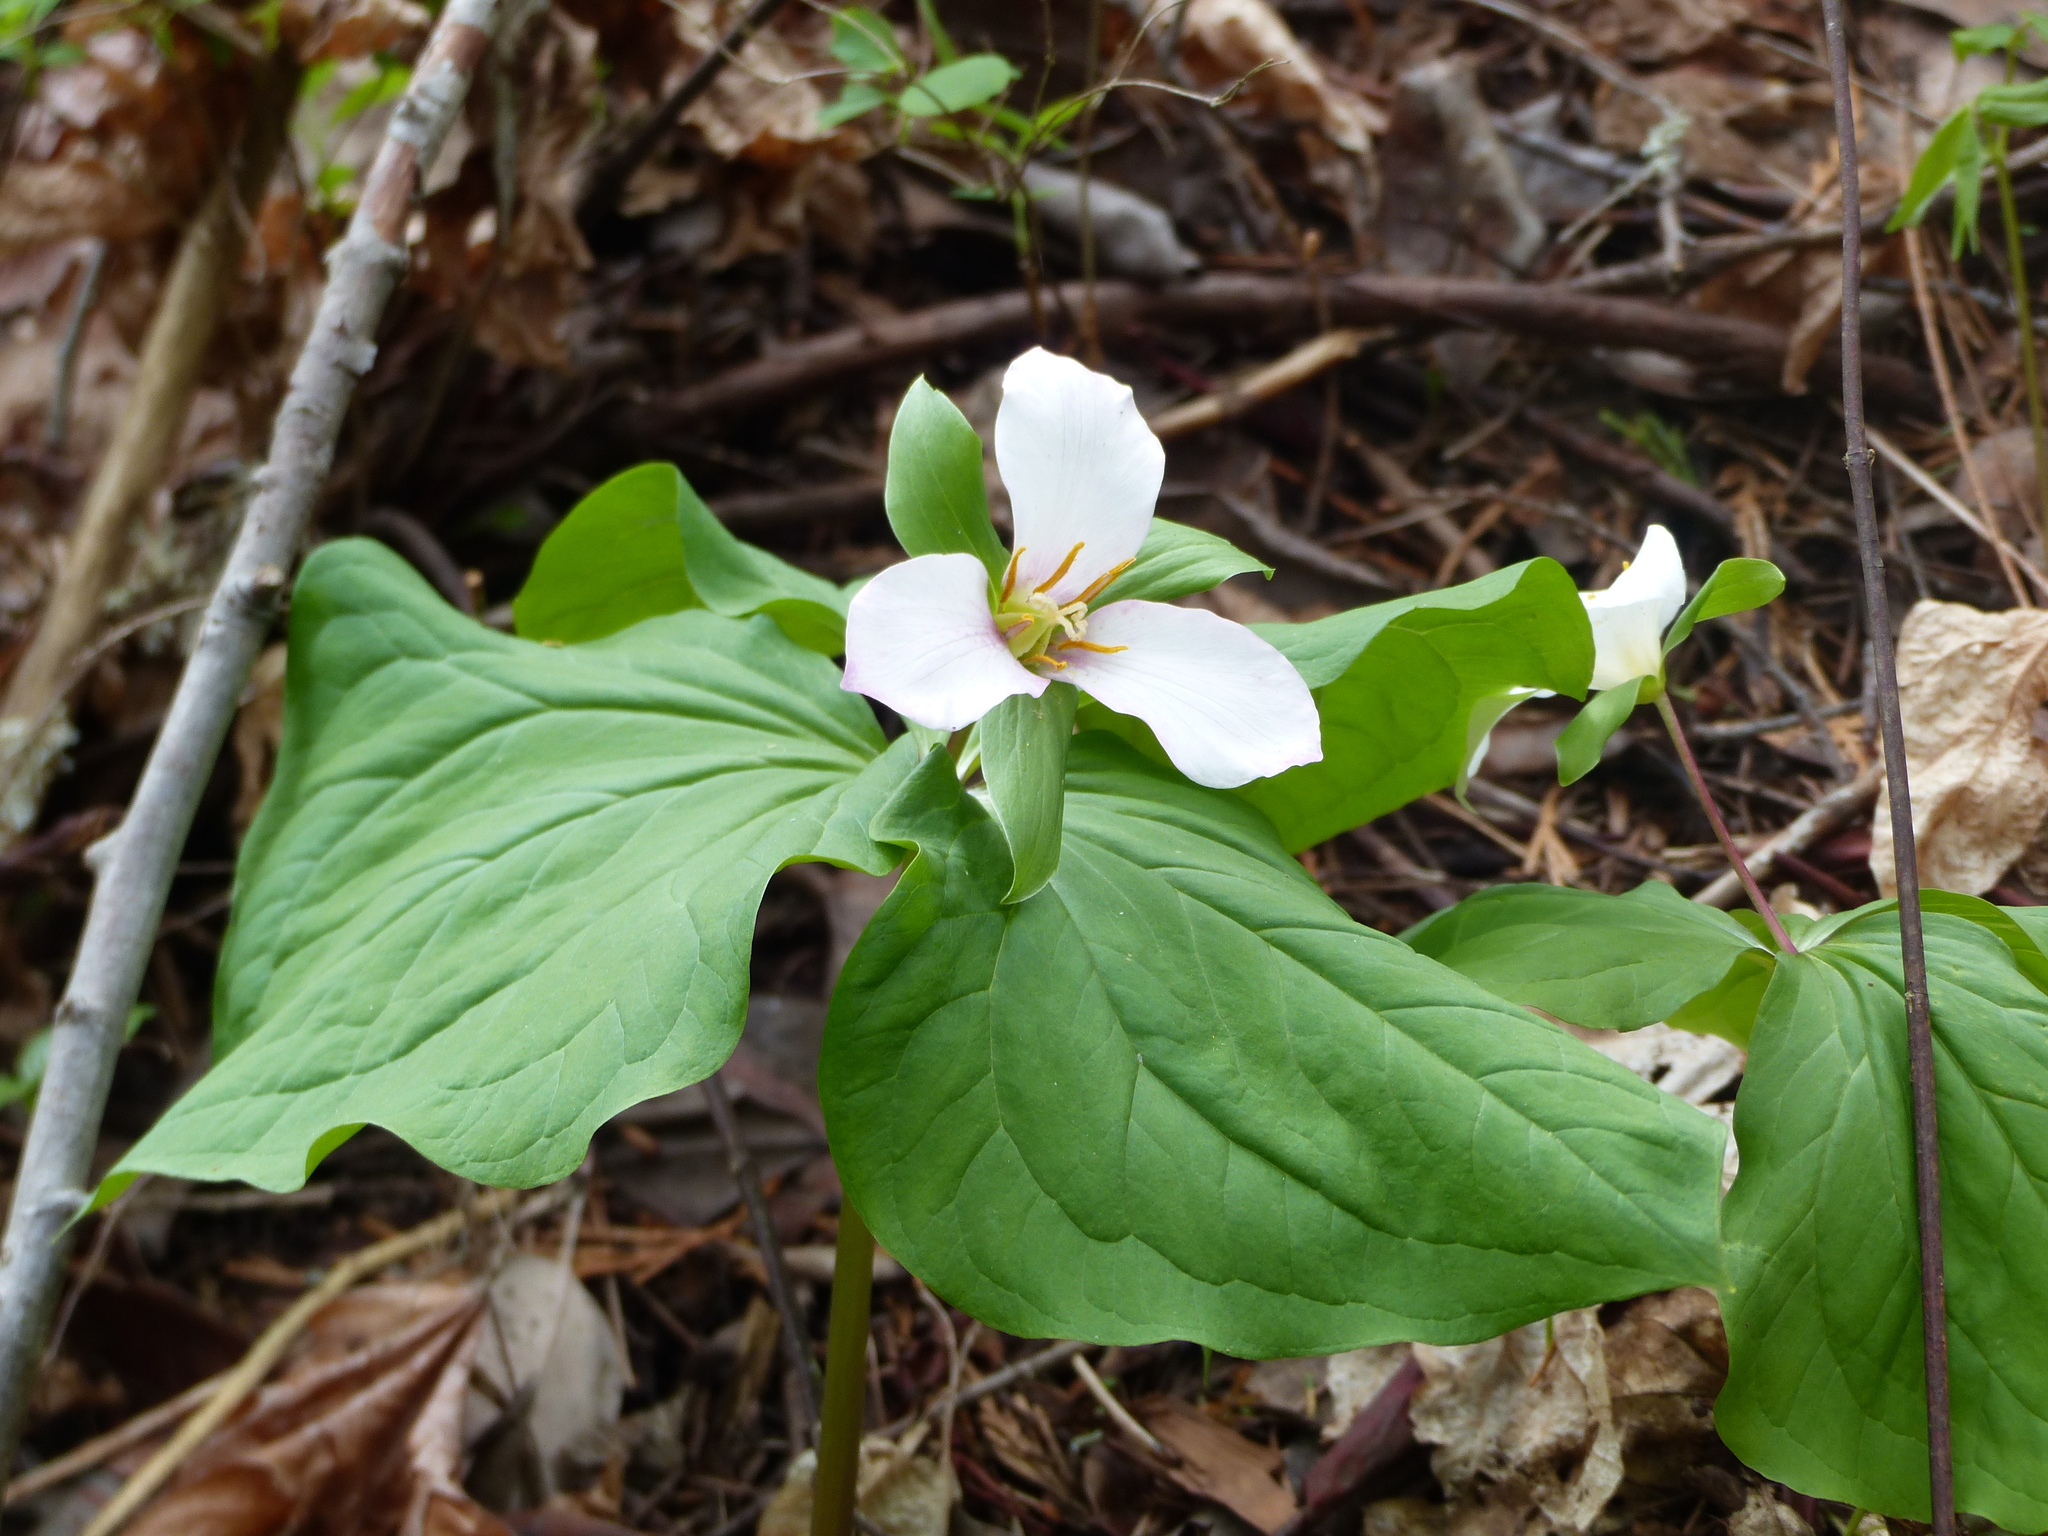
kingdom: Plantae
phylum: Tracheophyta
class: Liliopsida
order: Liliales
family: Melanthiaceae
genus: Trillium
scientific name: Trillium ovatum
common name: Pacific trillium
